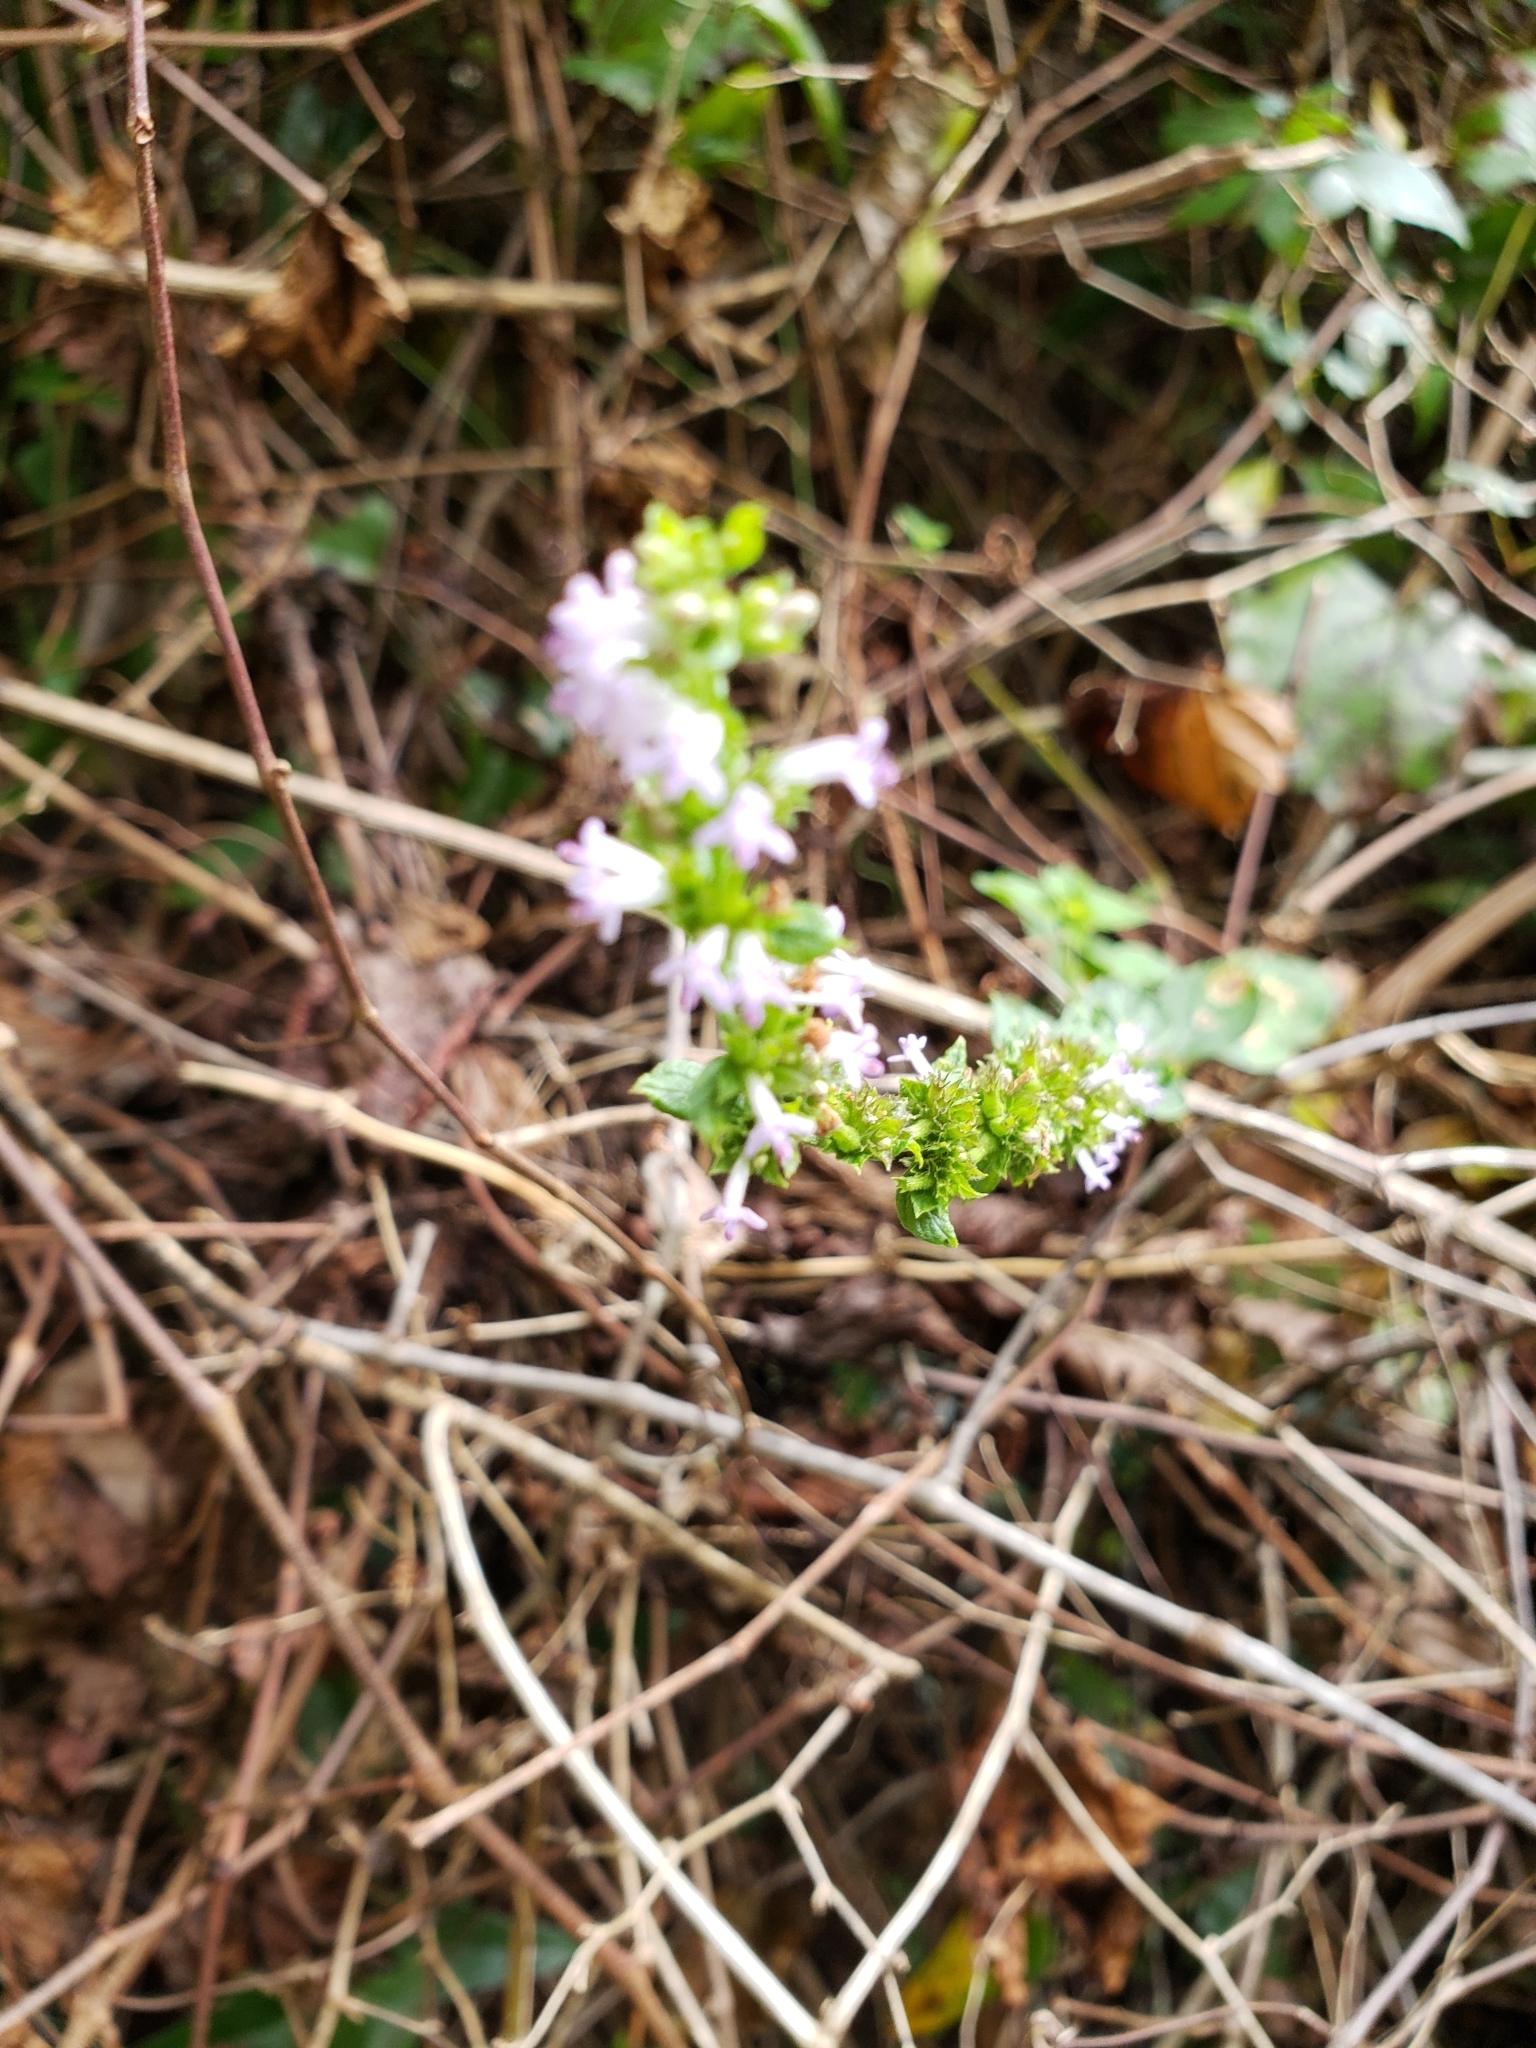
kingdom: Plantae
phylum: Tracheophyta
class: Magnoliopsida
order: Lamiales
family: Lamiaceae
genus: Cantinoa
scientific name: Cantinoa mutabilis
